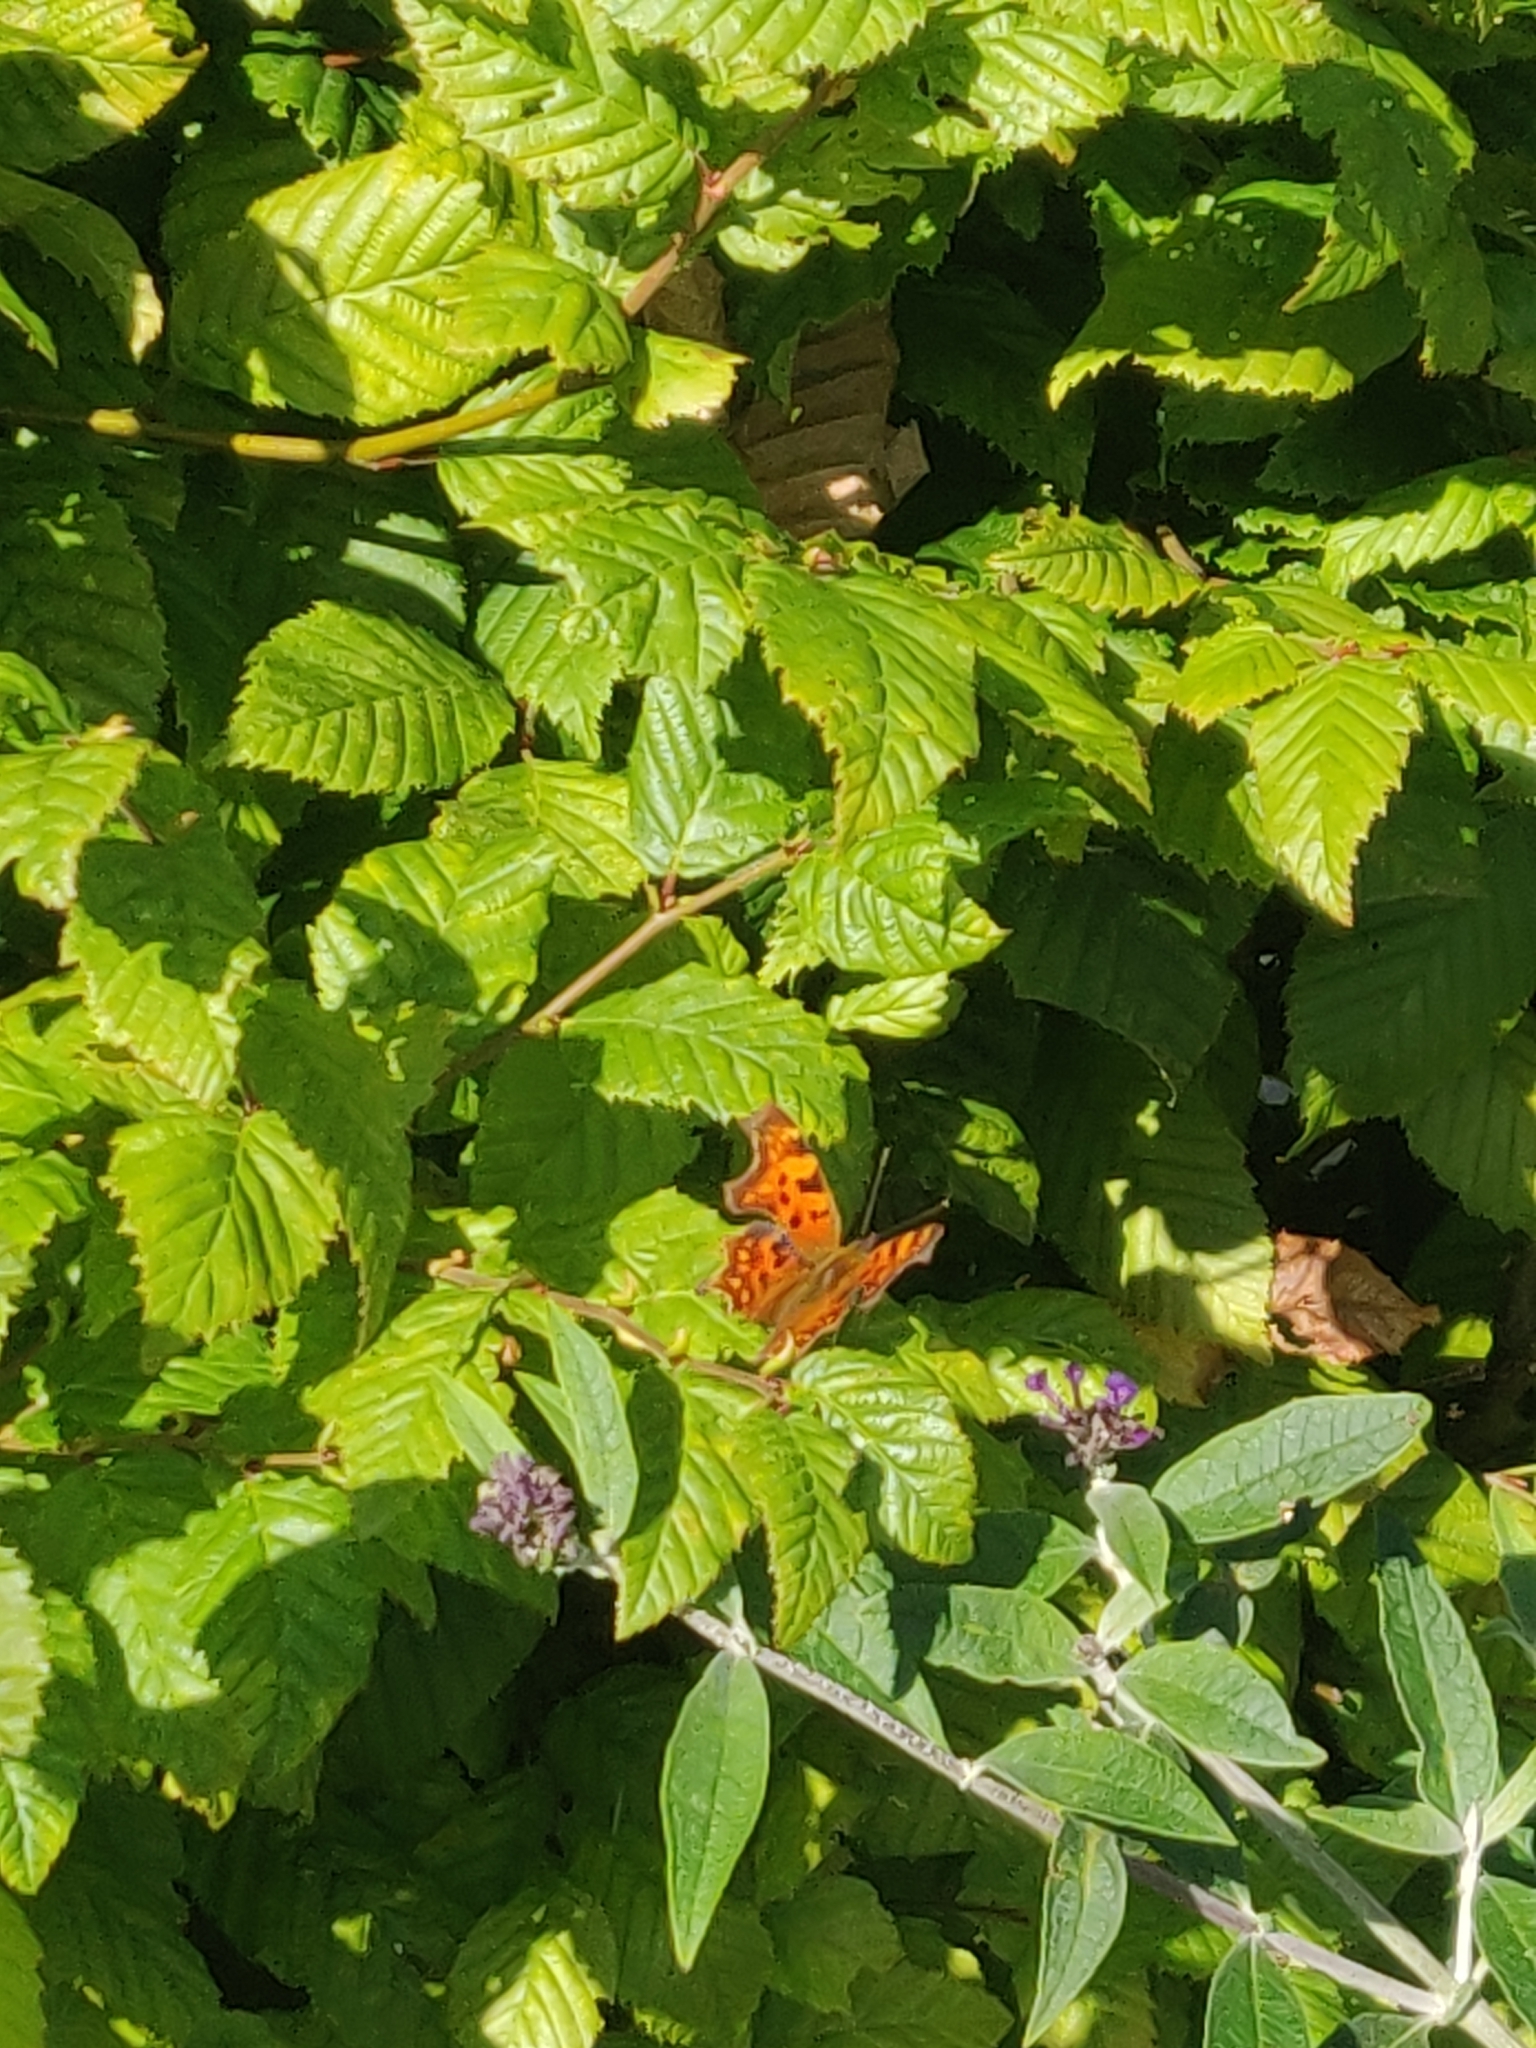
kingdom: Animalia
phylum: Arthropoda
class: Insecta
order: Lepidoptera
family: Nymphalidae
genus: Polygonia
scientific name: Polygonia c-album
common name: Comma
